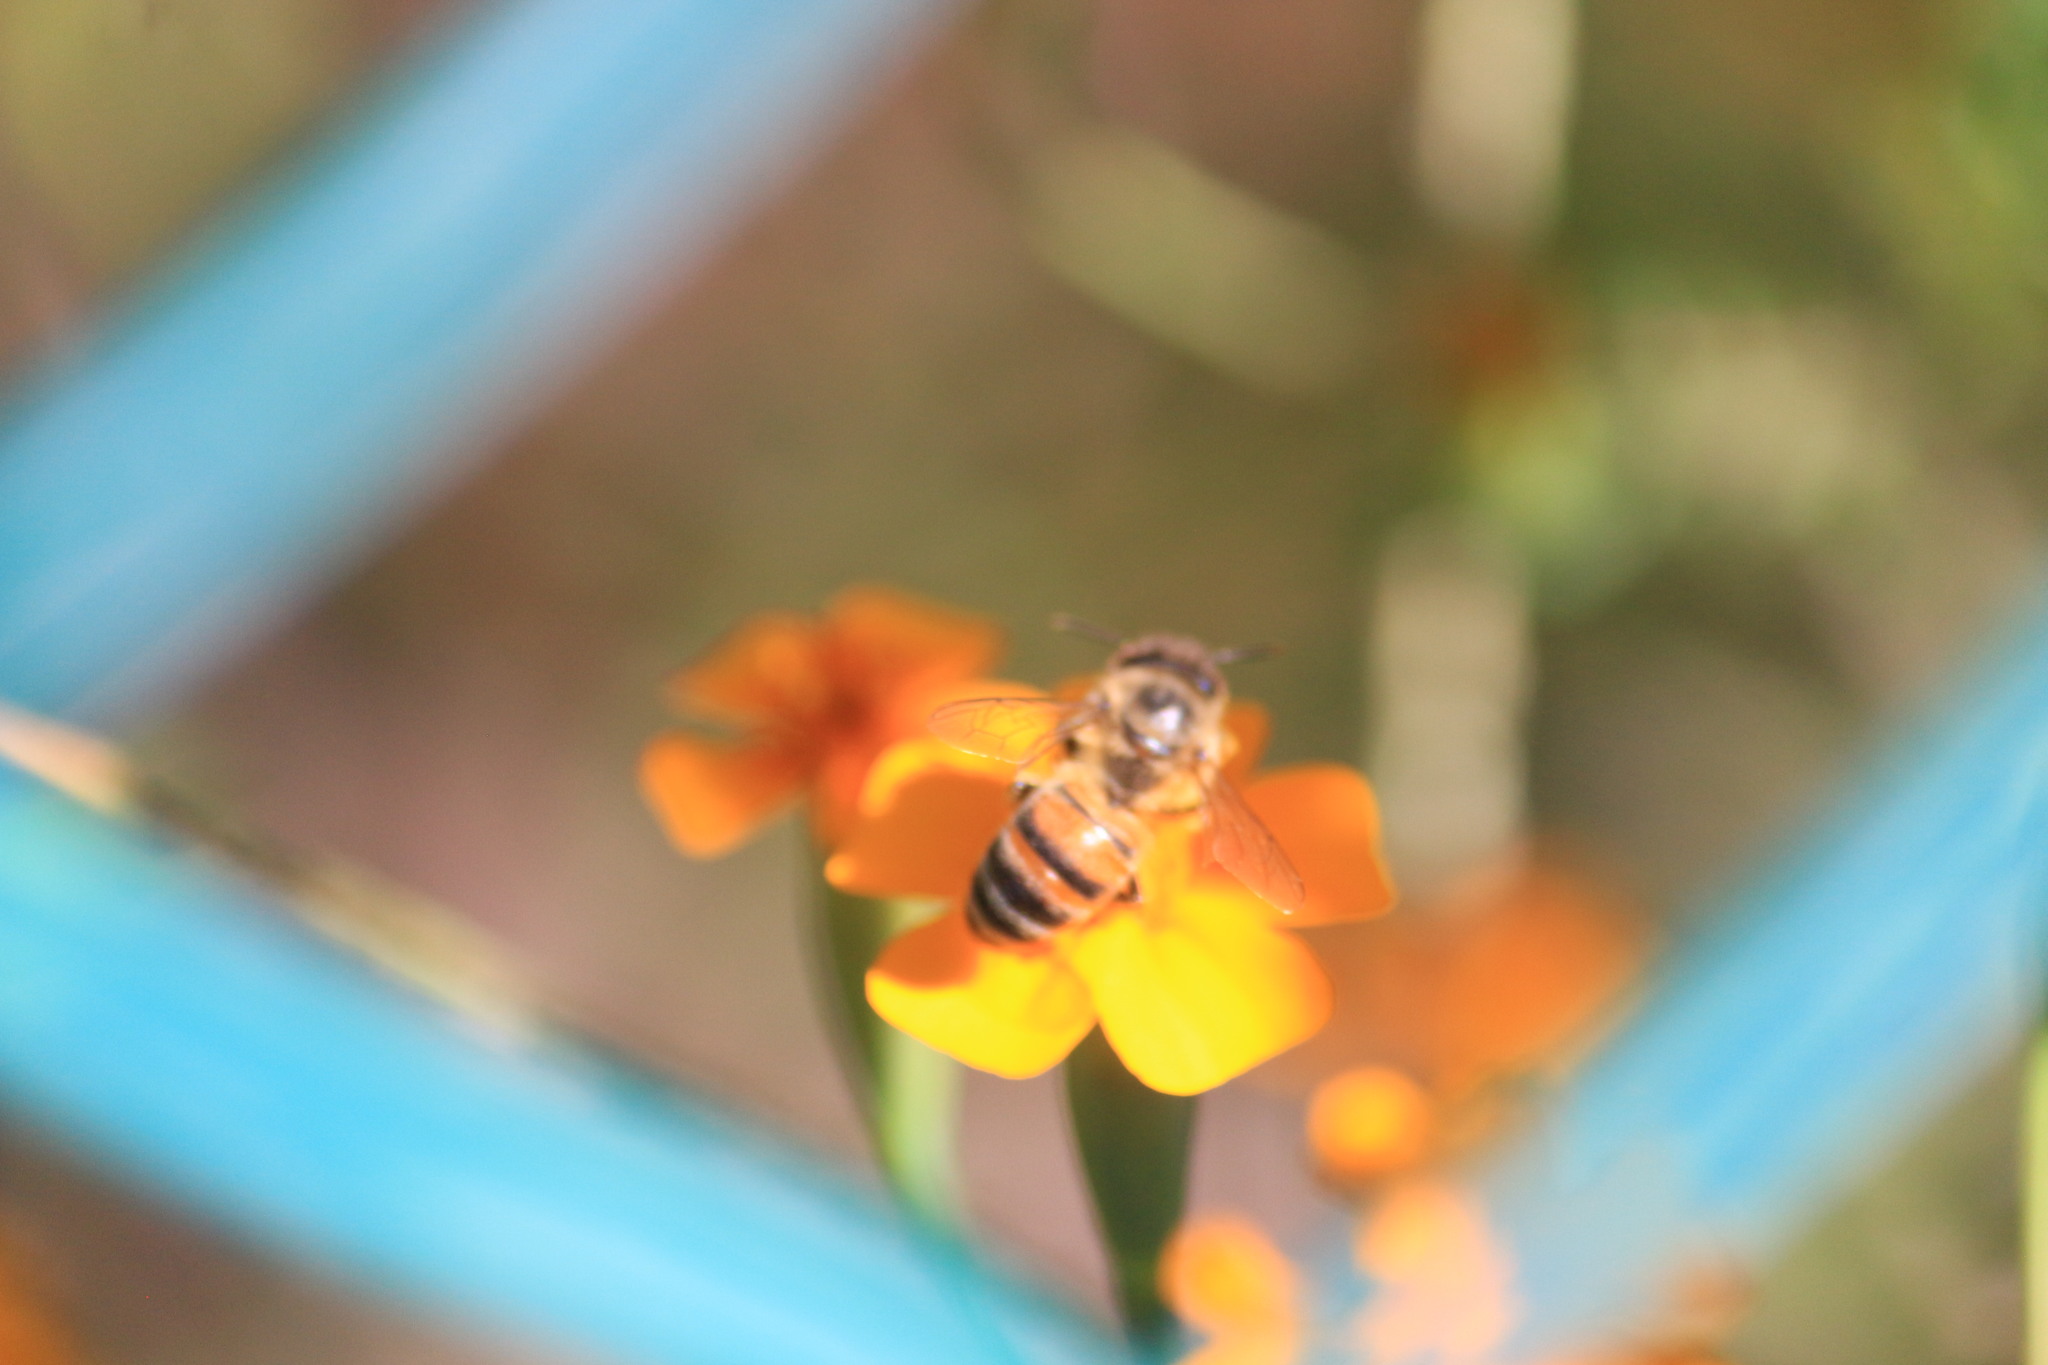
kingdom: Animalia
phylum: Arthropoda
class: Insecta
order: Hymenoptera
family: Apidae
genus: Apis
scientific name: Apis mellifera
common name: Honey bee
